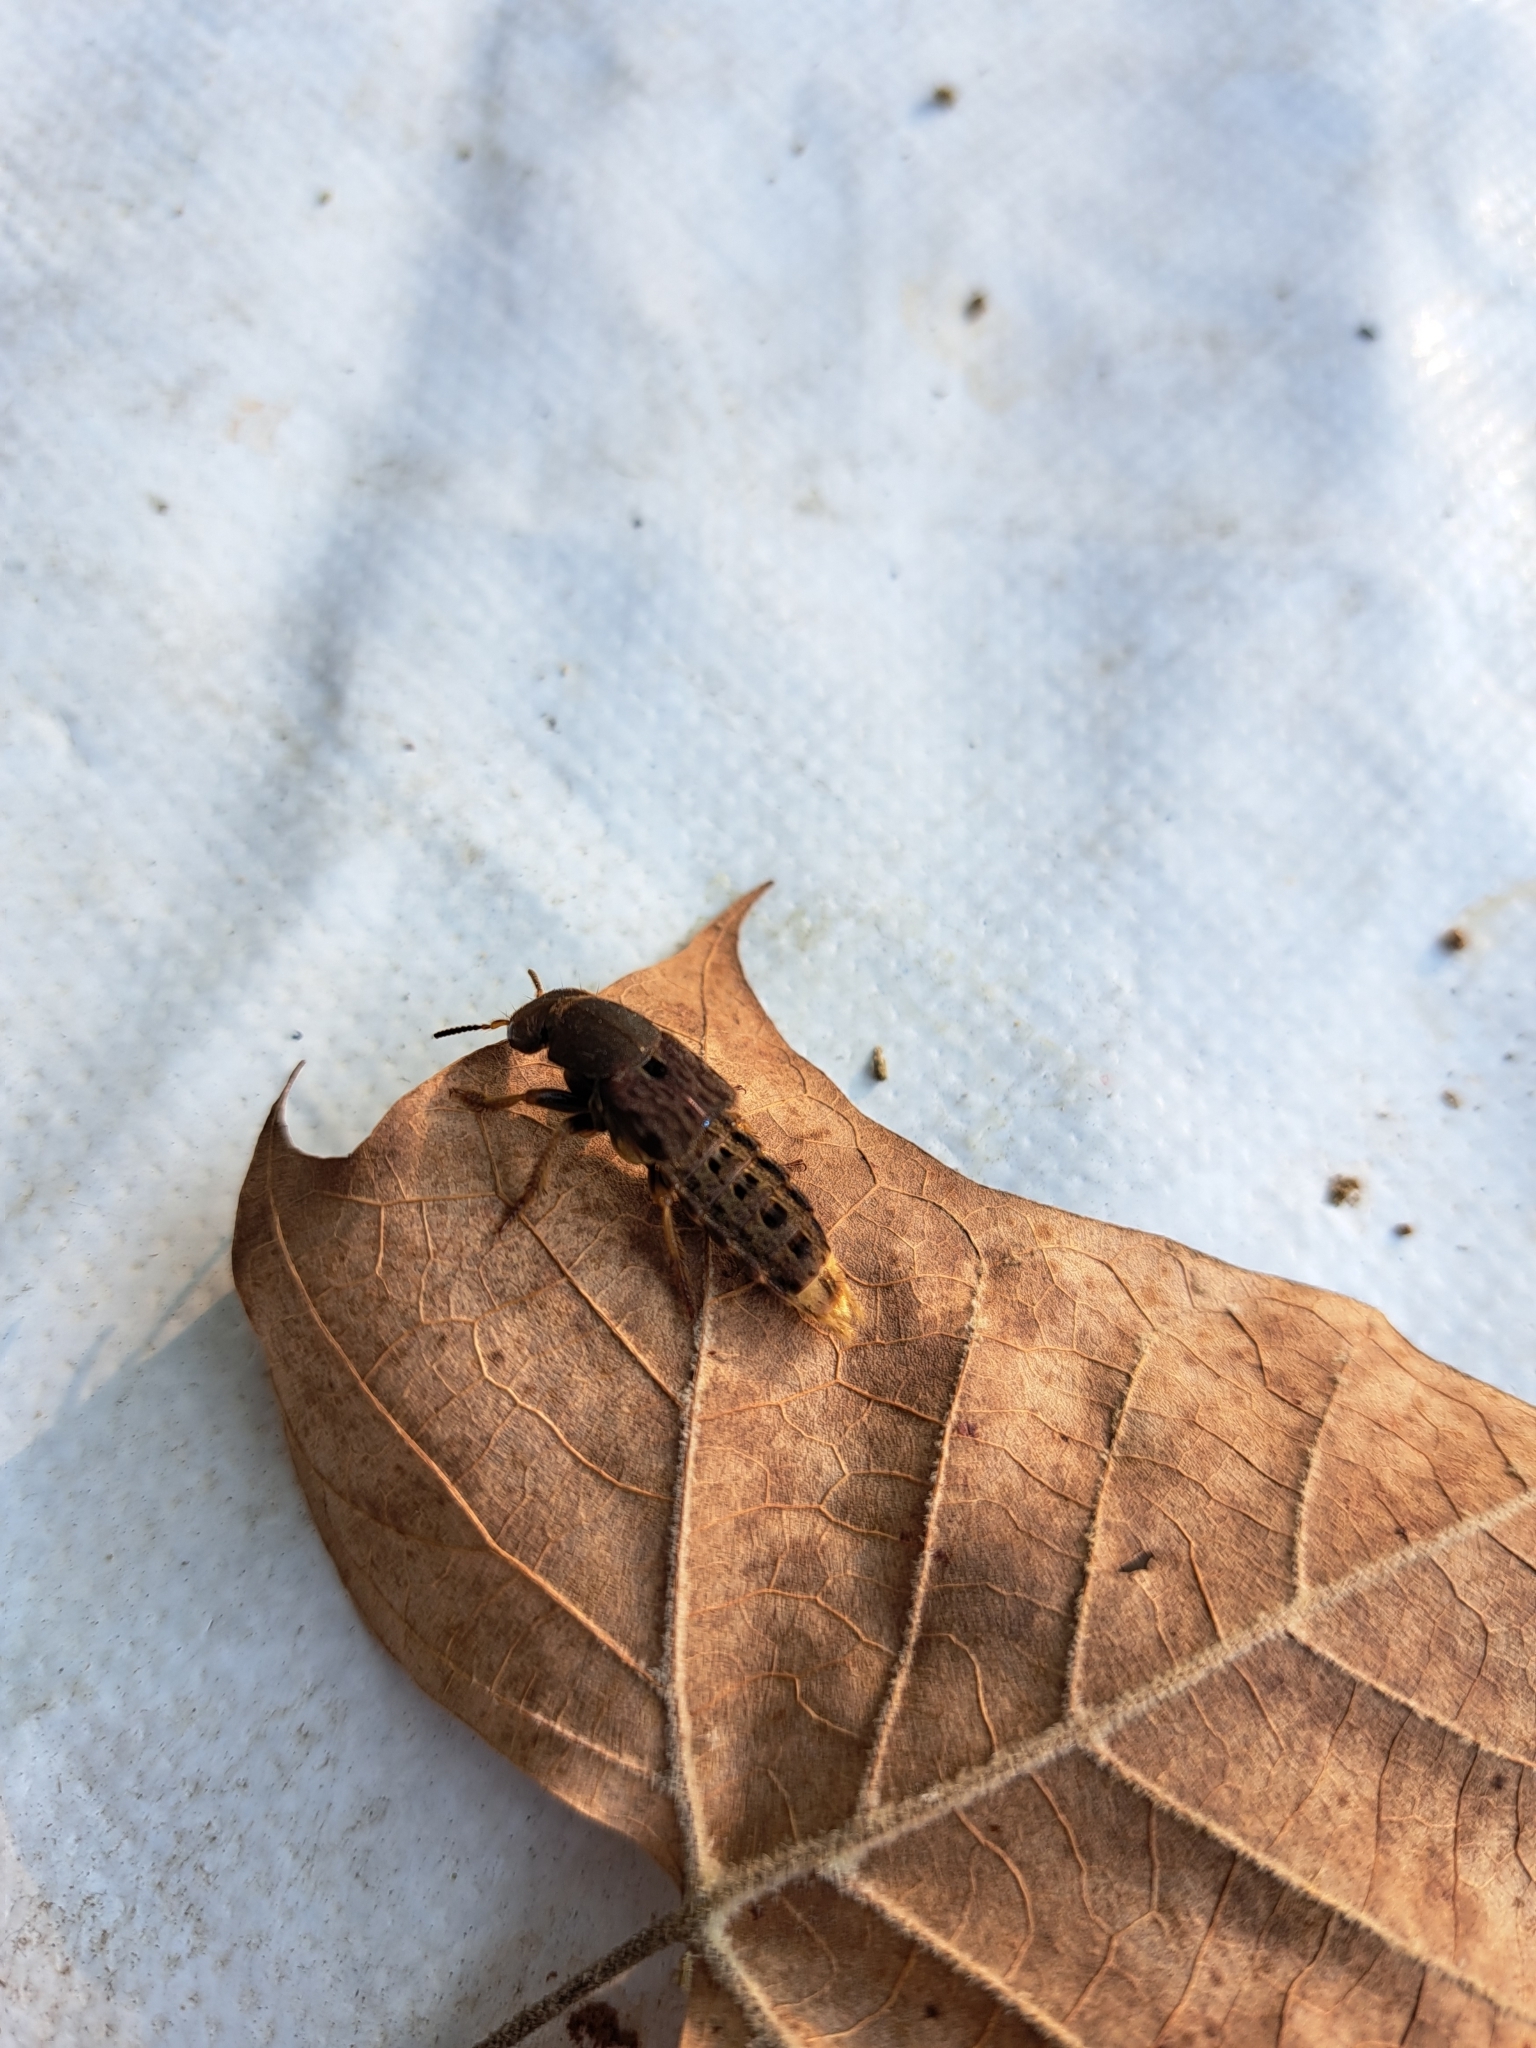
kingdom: Animalia
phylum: Arthropoda
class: Insecta
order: Coleoptera
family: Staphylinidae
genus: Platydracus
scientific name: Platydracus maculosus
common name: Brown rove beetle
